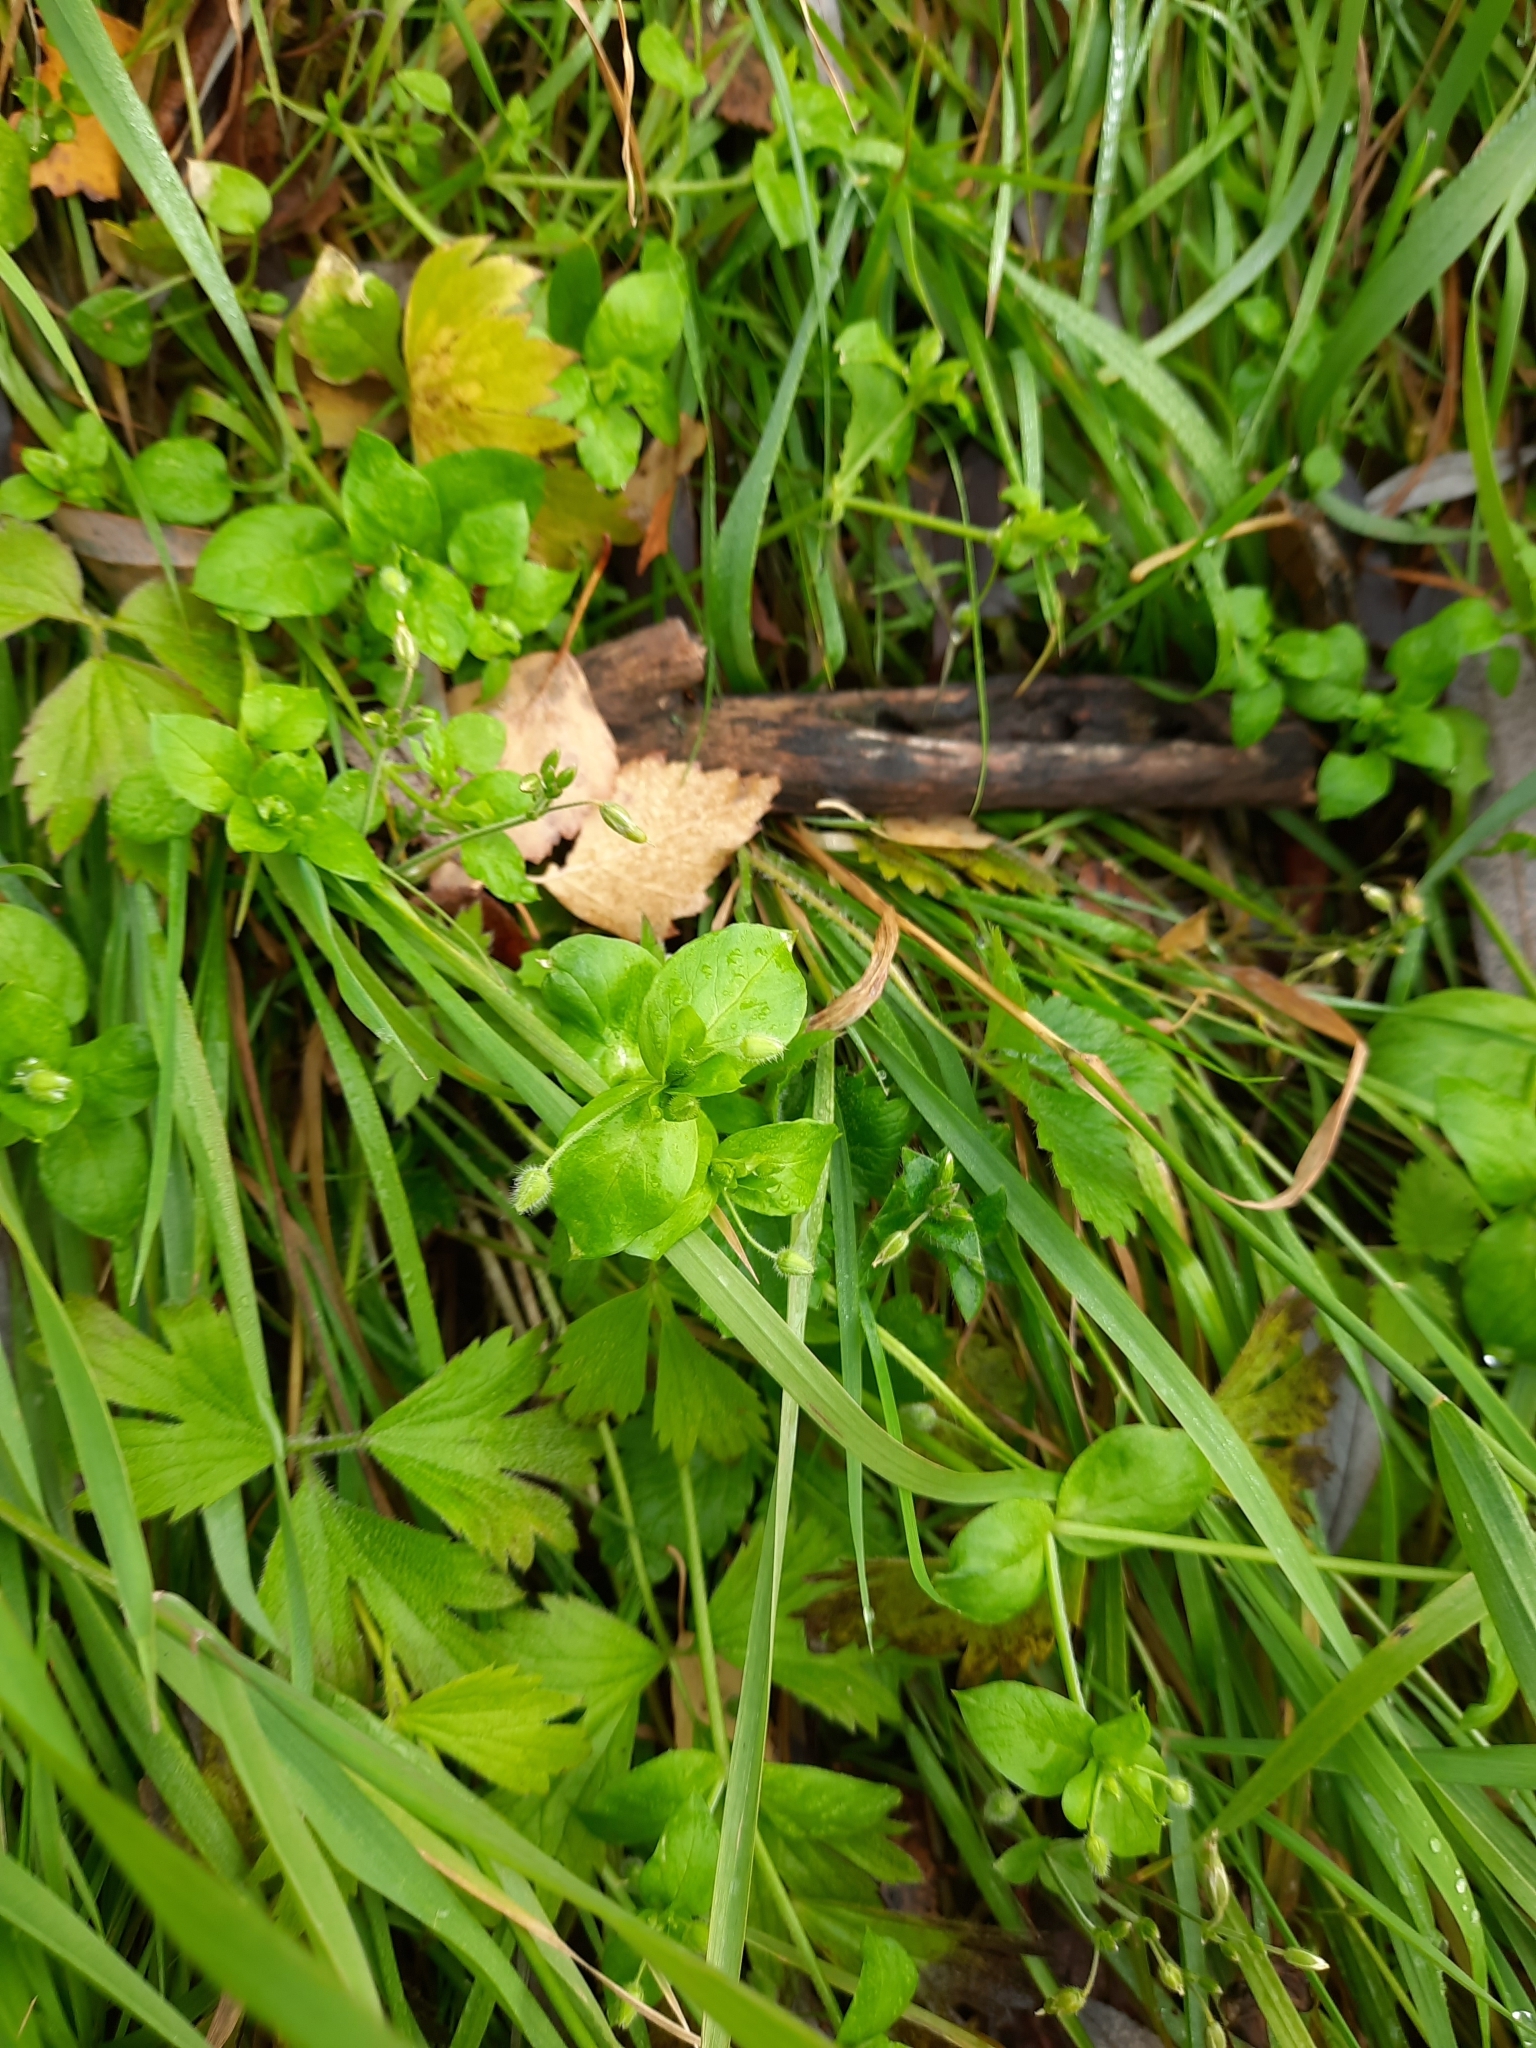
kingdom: Plantae
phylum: Tracheophyta
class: Magnoliopsida
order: Caryophyllales
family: Caryophyllaceae
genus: Stellaria
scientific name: Stellaria media
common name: Common chickweed
